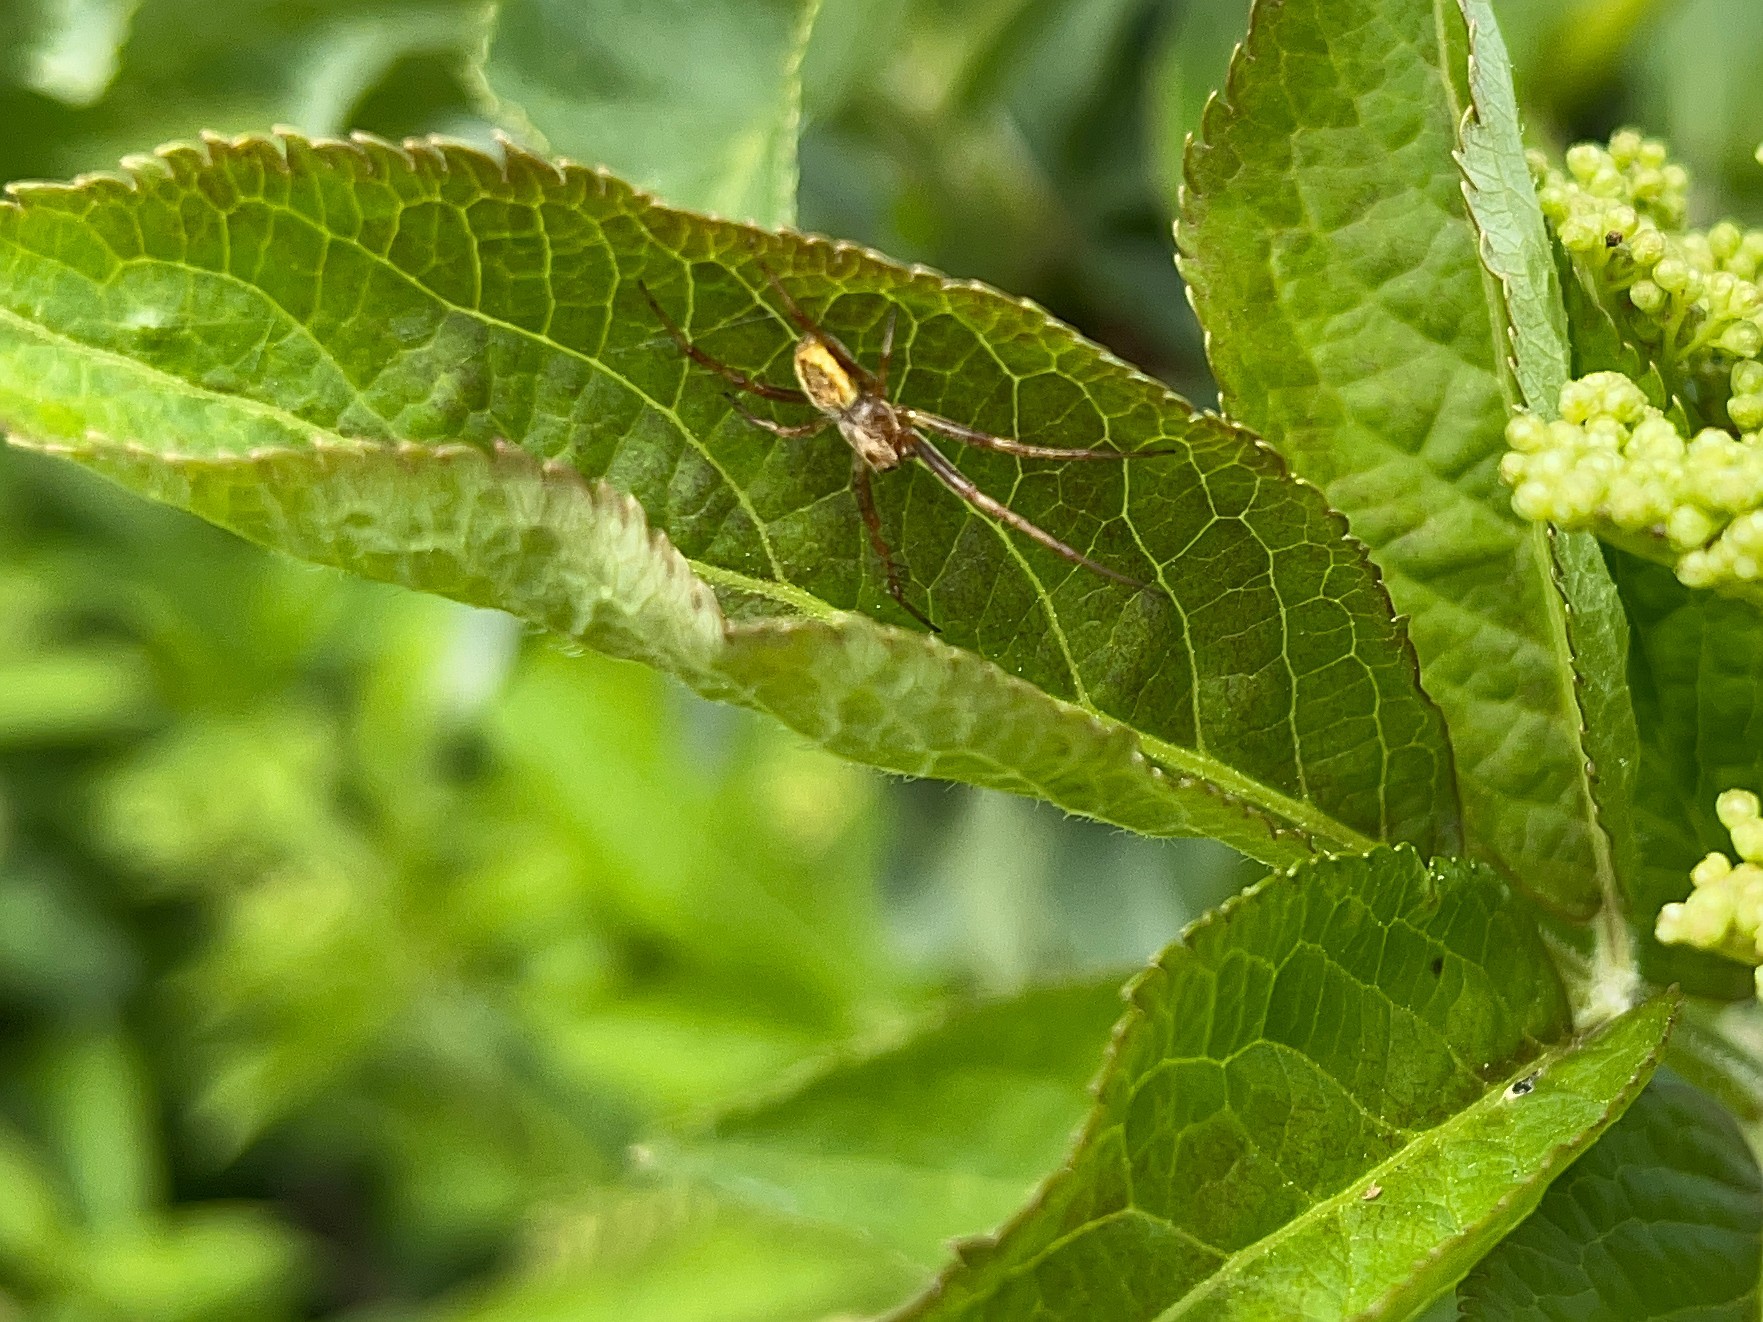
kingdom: Animalia
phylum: Arthropoda
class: Arachnida
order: Araneae
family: Araneidae
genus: Salsa
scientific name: Salsa fuliginata
